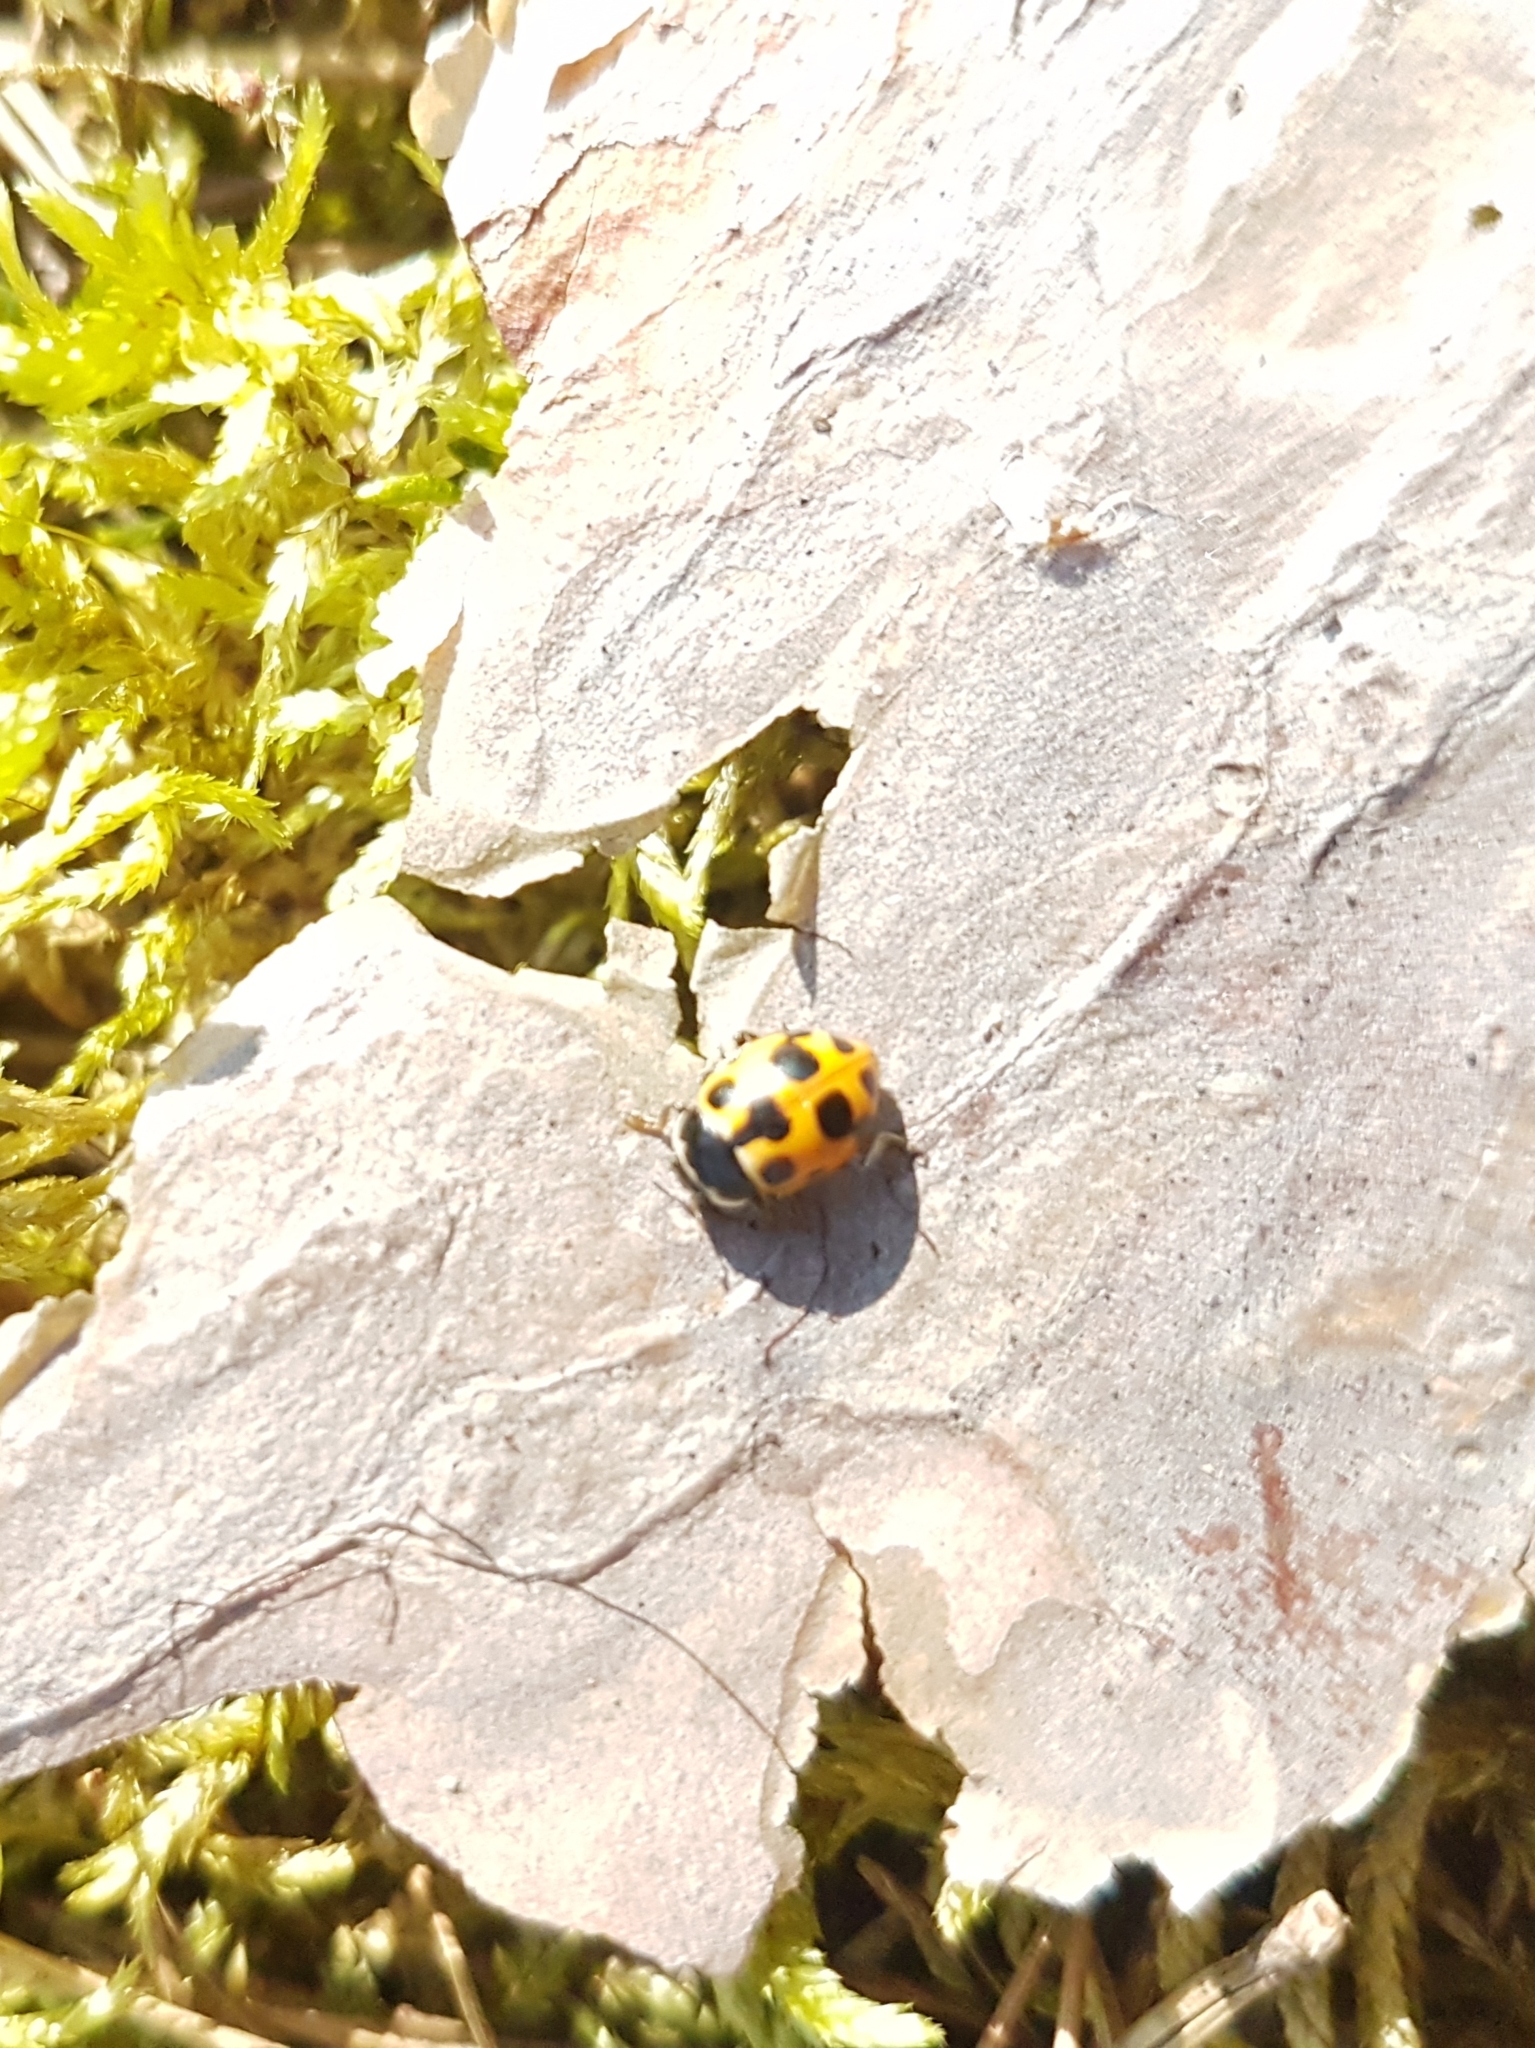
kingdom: Animalia
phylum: Arthropoda
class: Insecta
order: Coleoptera
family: Coccinellidae
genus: Ceratomegilla
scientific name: Ceratomegilla notata
